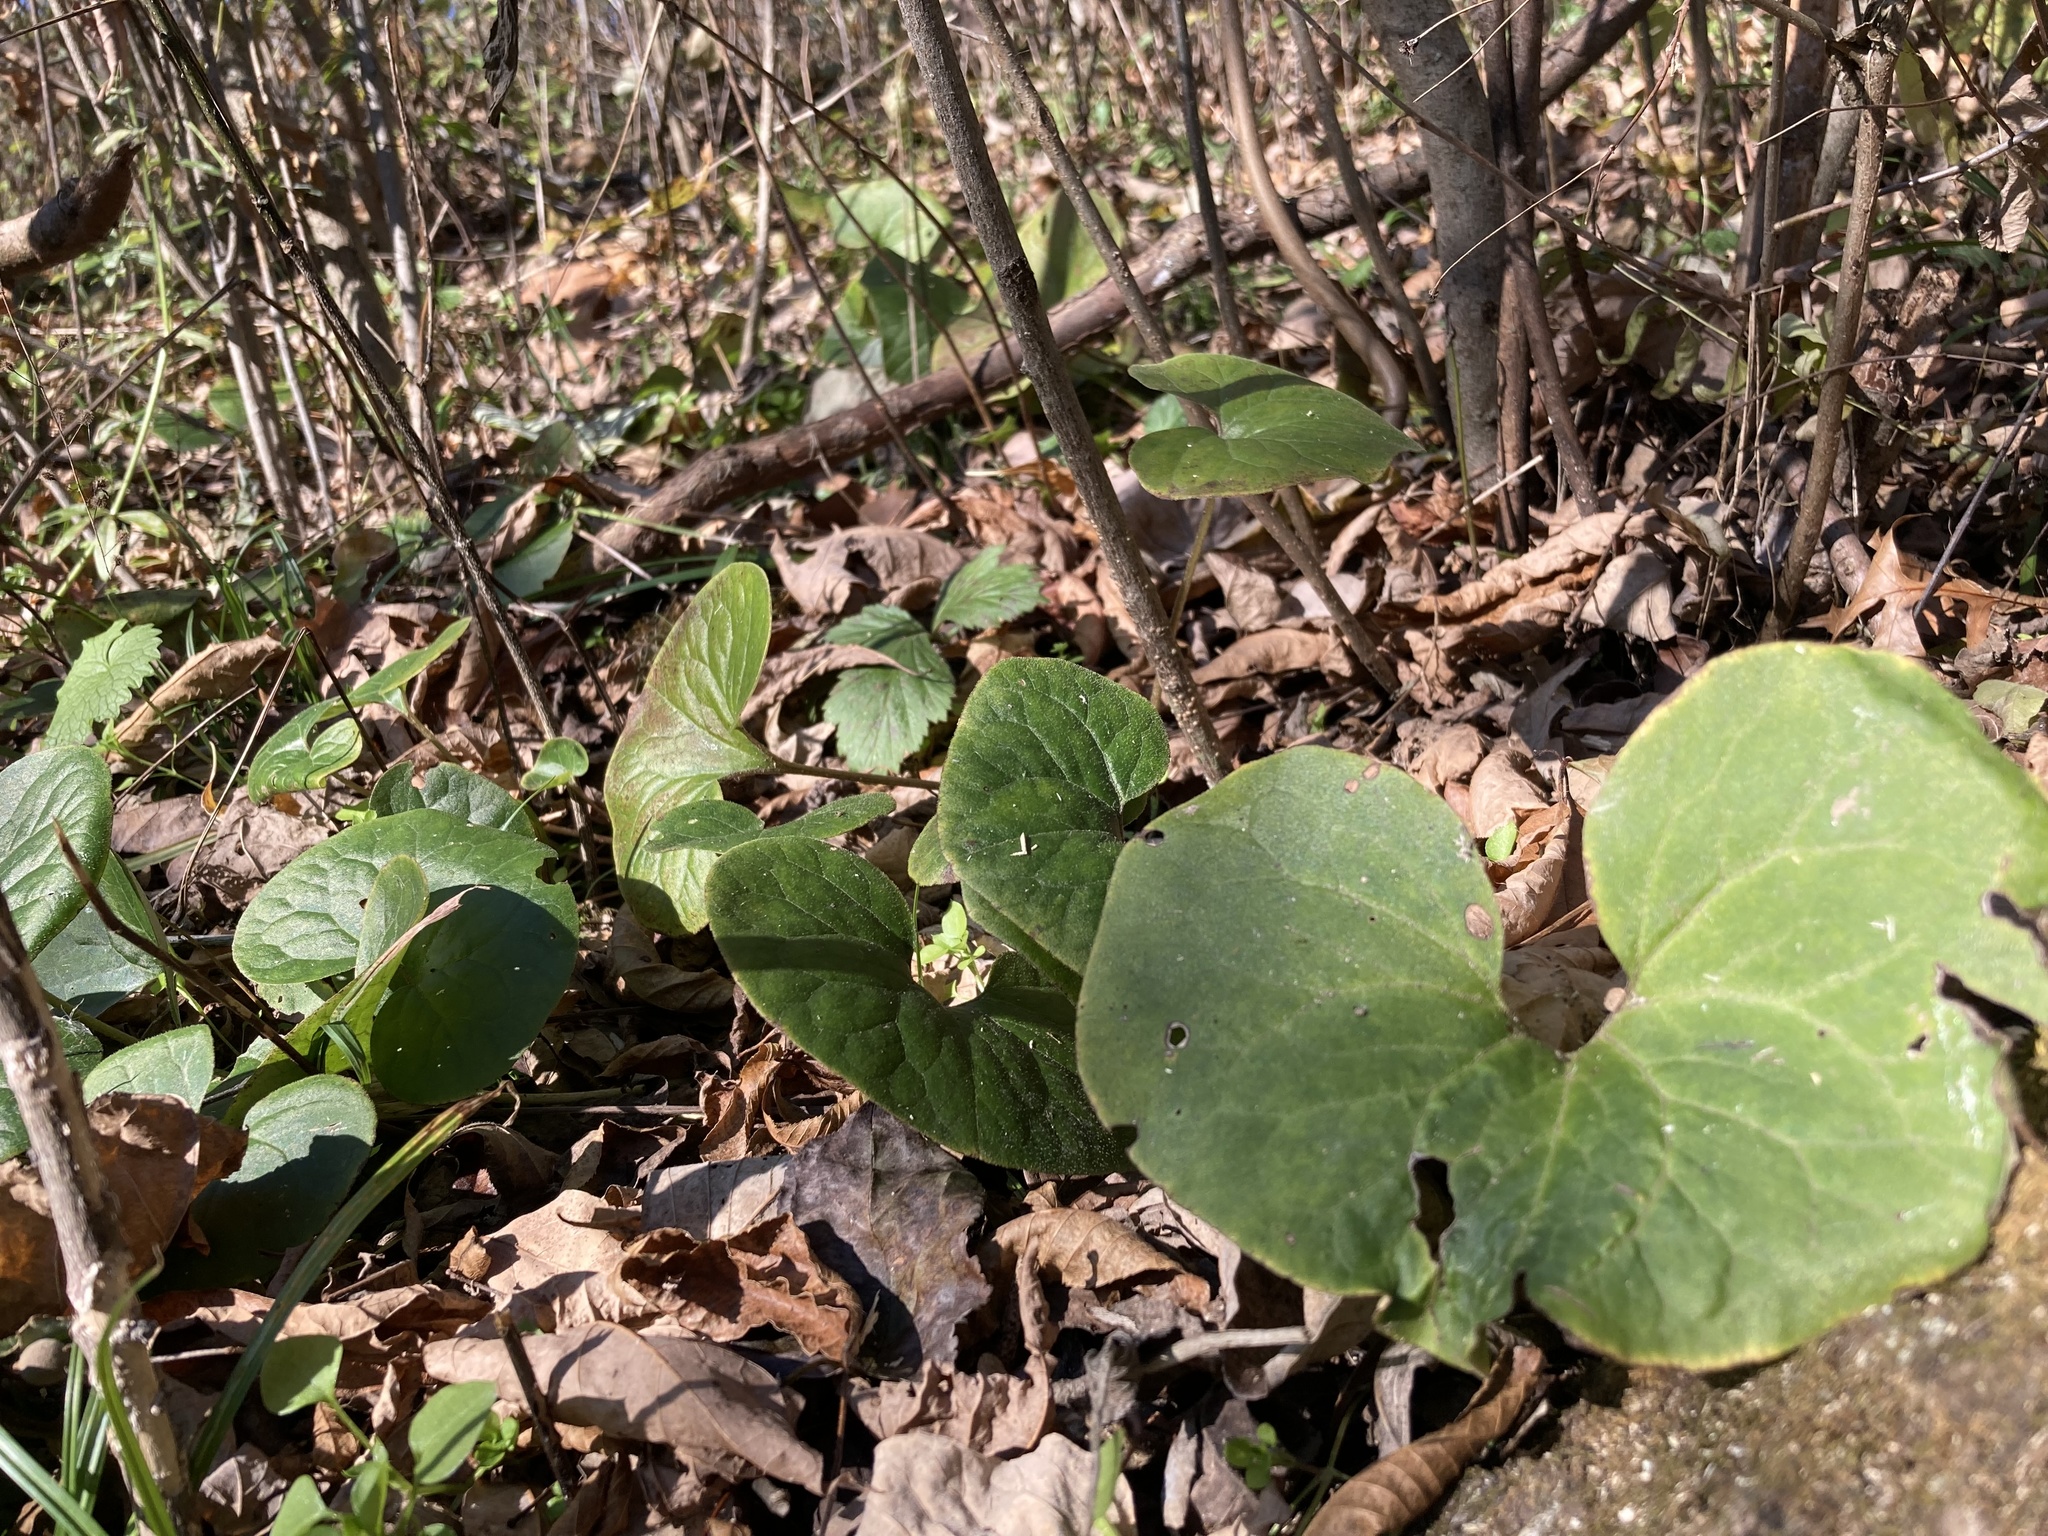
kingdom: Plantae
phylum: Tracheophyta
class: Magnoliopsida
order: Piperales
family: Aristolochiaceae
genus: Asarum
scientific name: Asarum canadense
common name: Wild ginger
